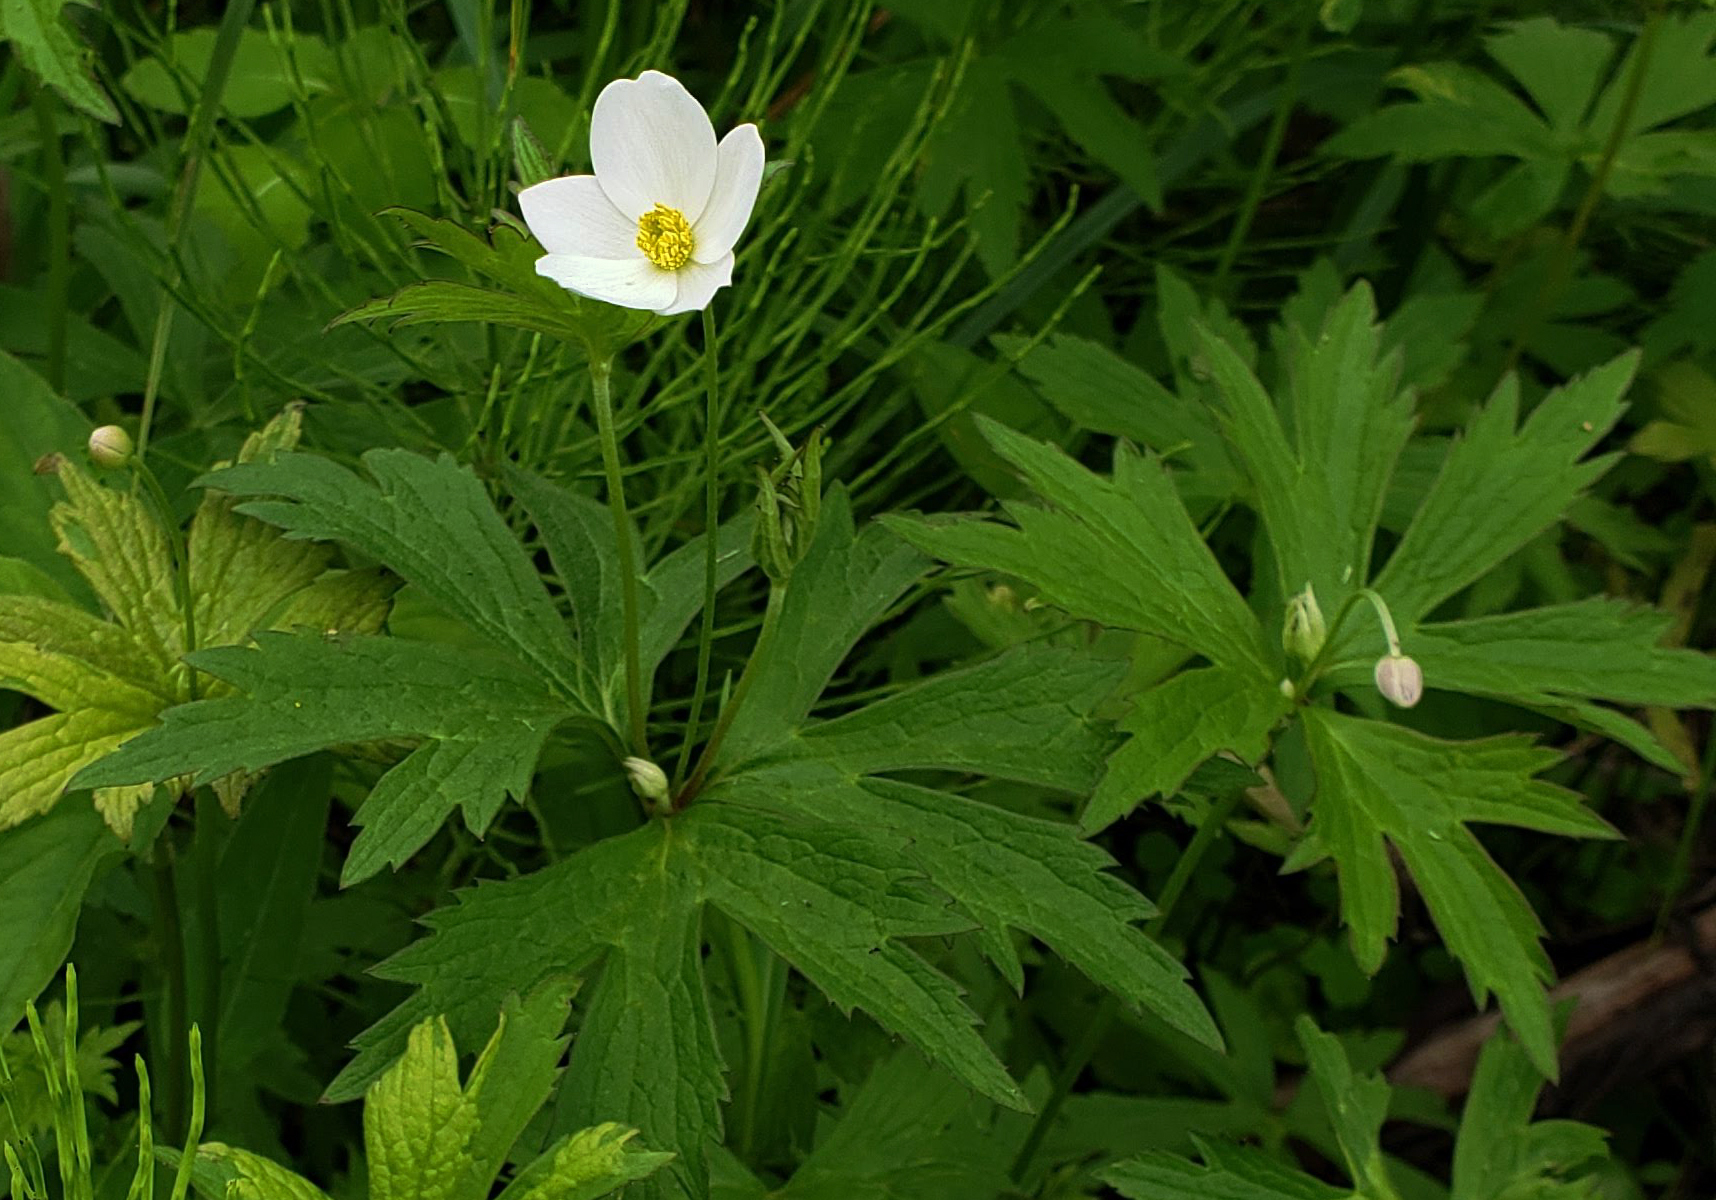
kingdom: Plantae
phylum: Tracheophyta
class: Magnoliopsida
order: Ranunculales
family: Ranunculaceae
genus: Anemonastrum
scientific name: Anemonastrum canadense
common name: Canada anemone
